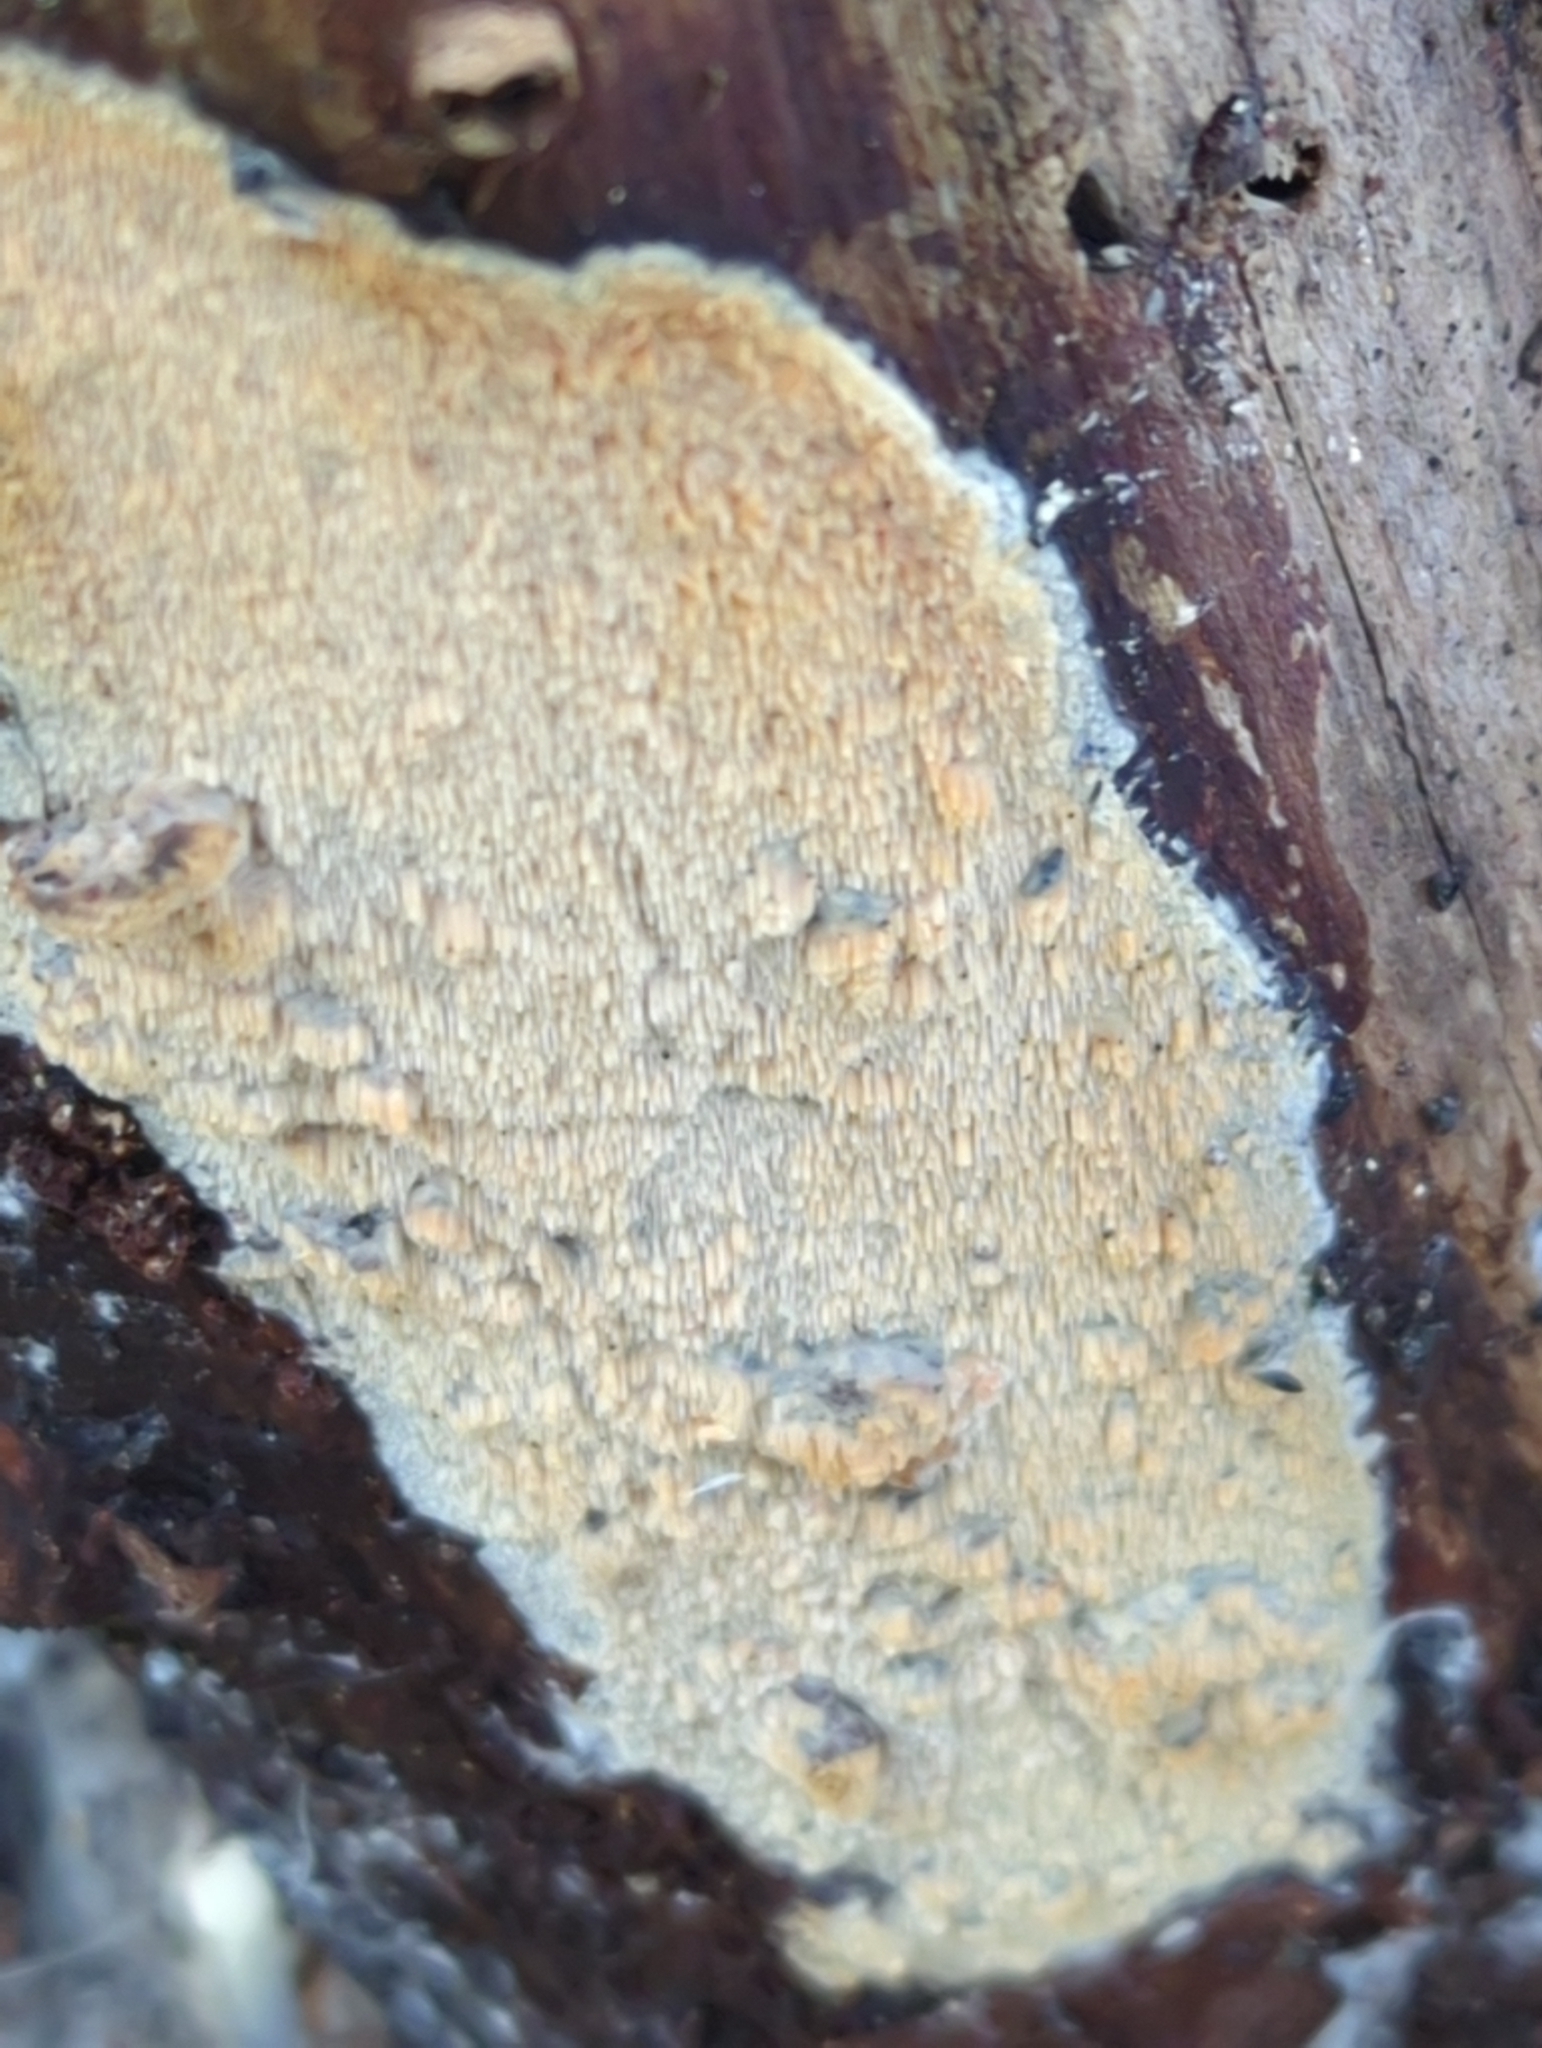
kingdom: Fungi
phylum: Basidiomycota
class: Agaricomycetes
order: Polyporales
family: Meruliaceae
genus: Mycoacia
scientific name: Mycoacia aurea
